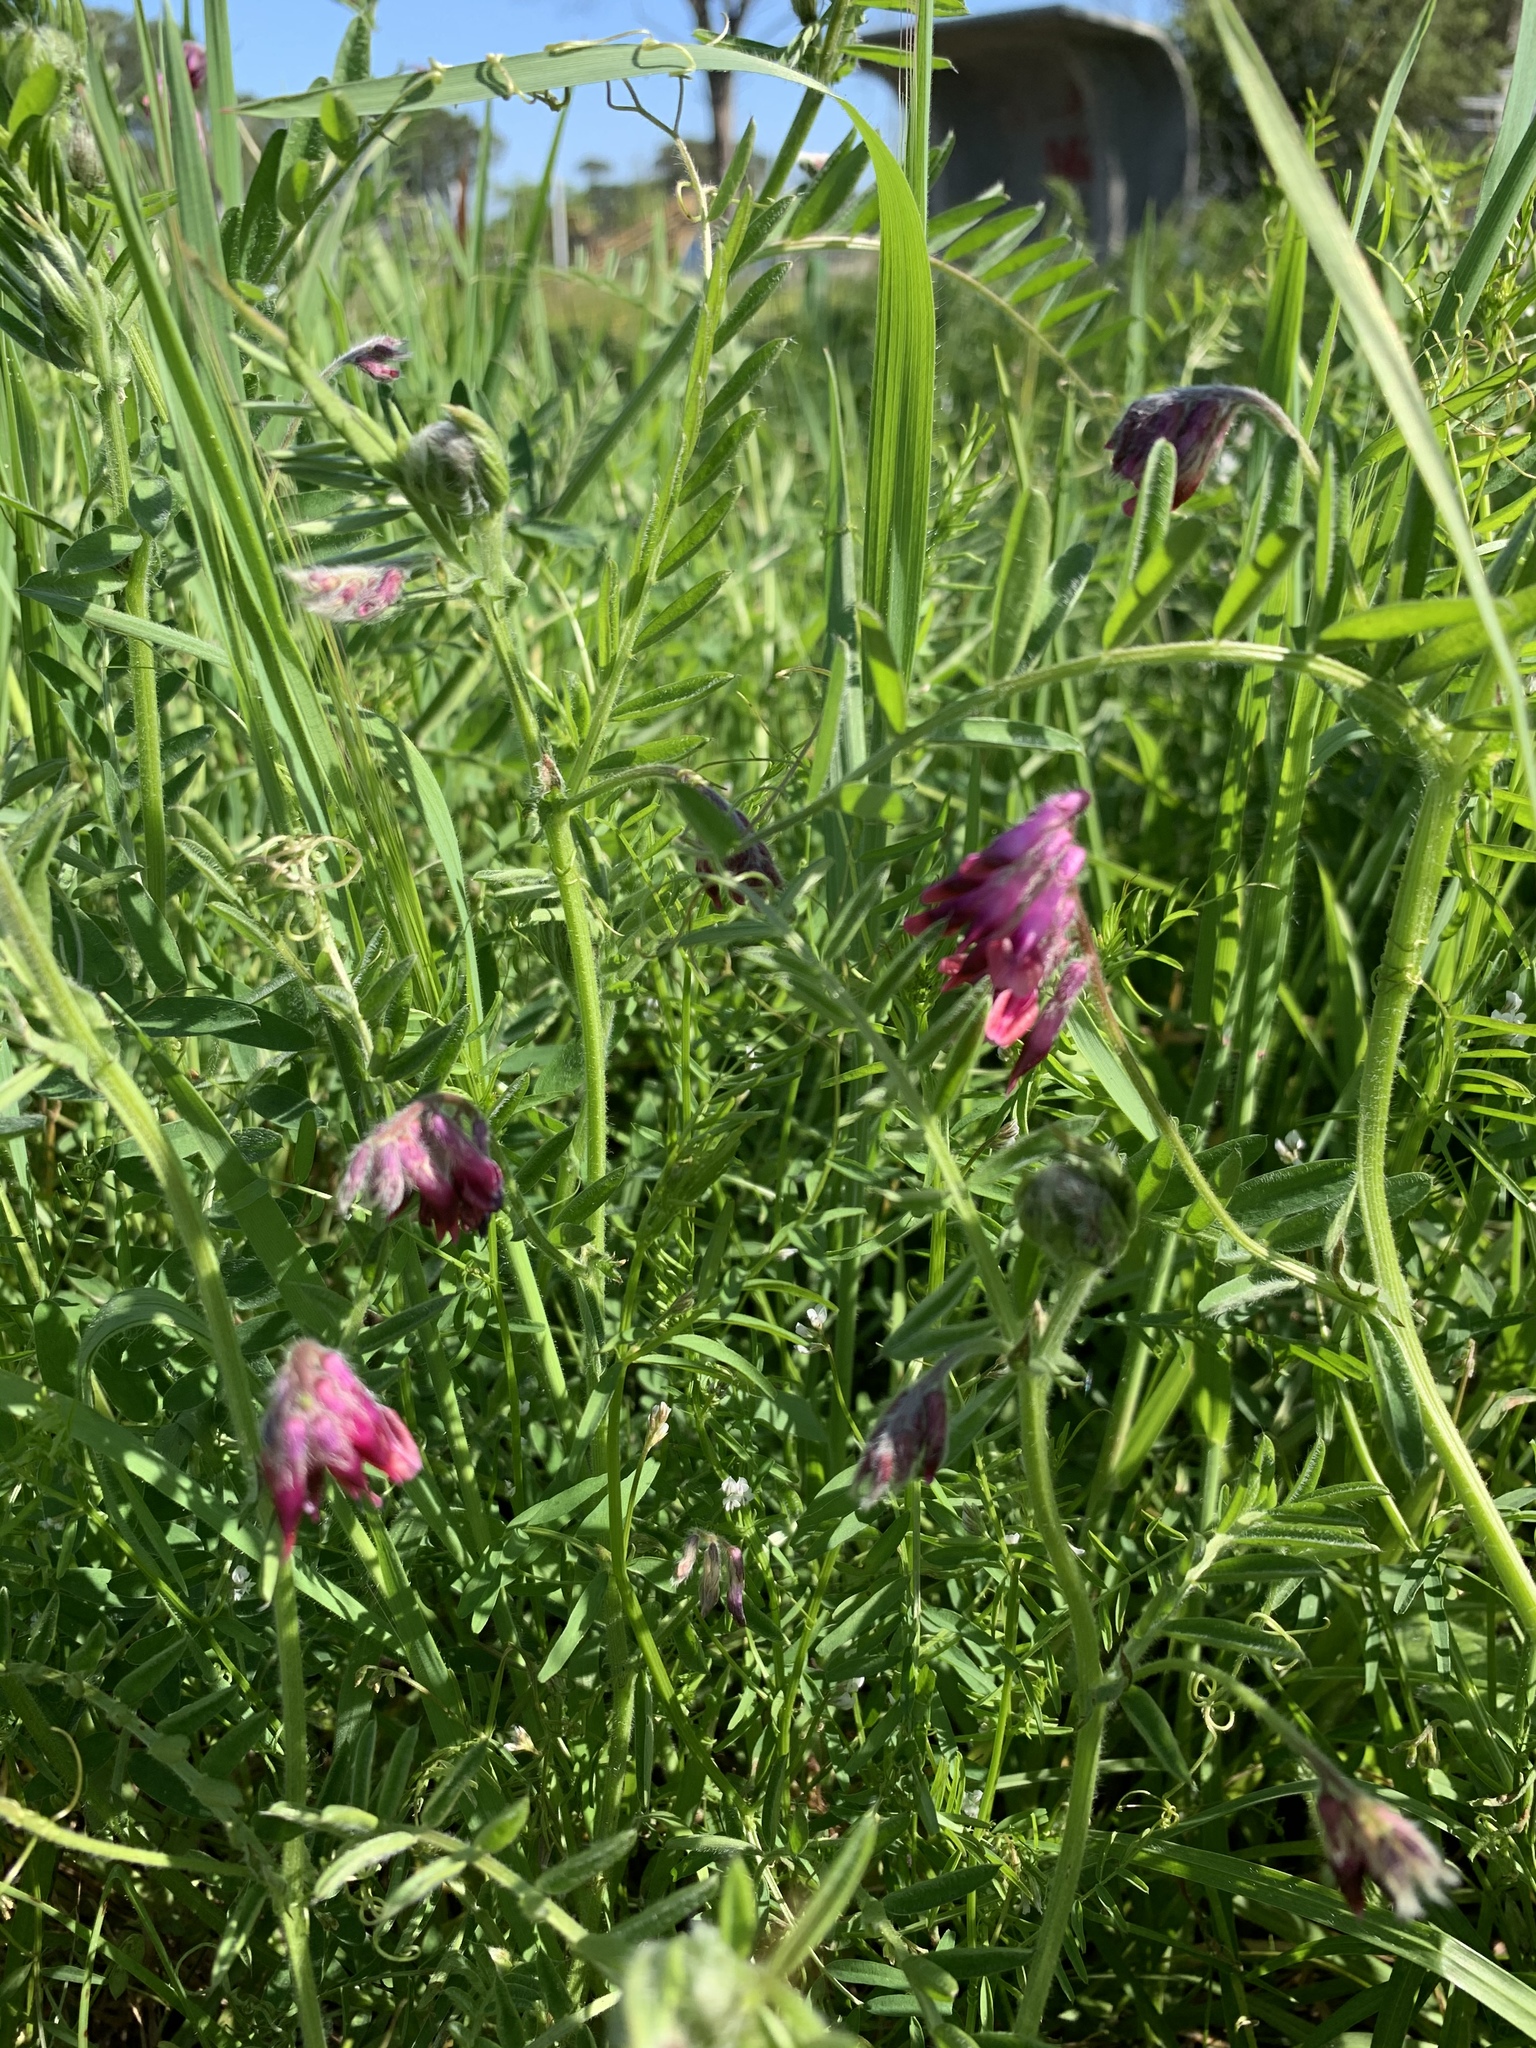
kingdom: Plantae
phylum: Tracheophyta
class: Magnoliopsida
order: Fabales
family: Fabaceae
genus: Vicia
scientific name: Vicia benghalensis
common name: Purple vetch
